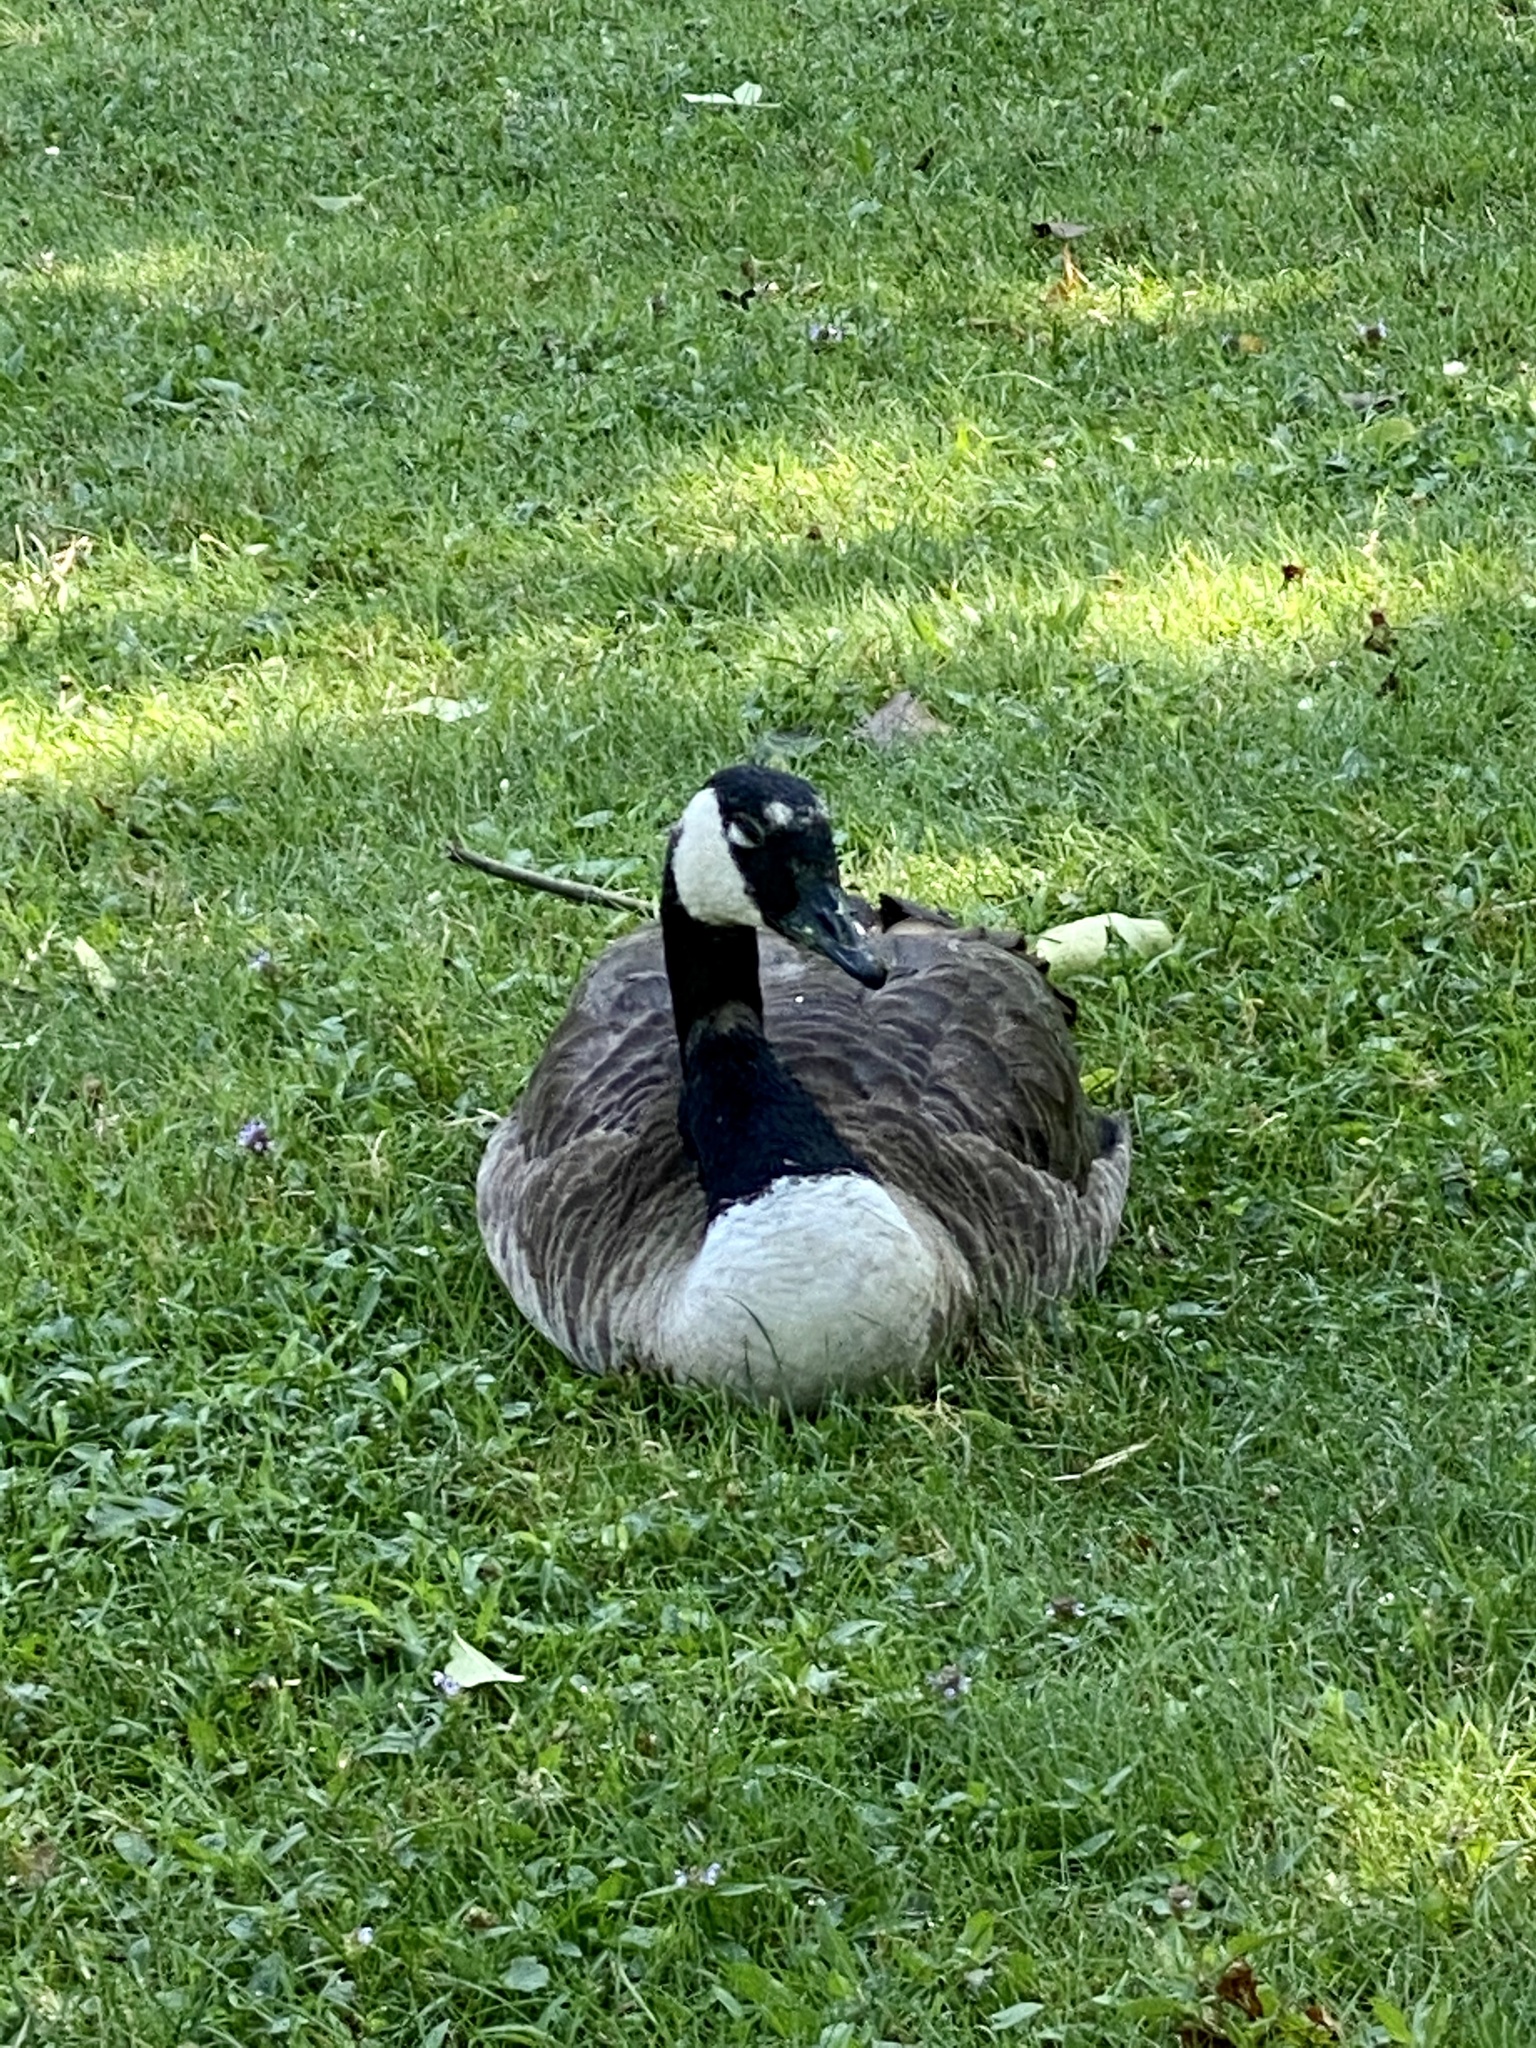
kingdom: Animalia
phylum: Chordata
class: Aves
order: Anseriformes
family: Anatidae
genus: Branta
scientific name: Branta canadensis
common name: Canada goose
